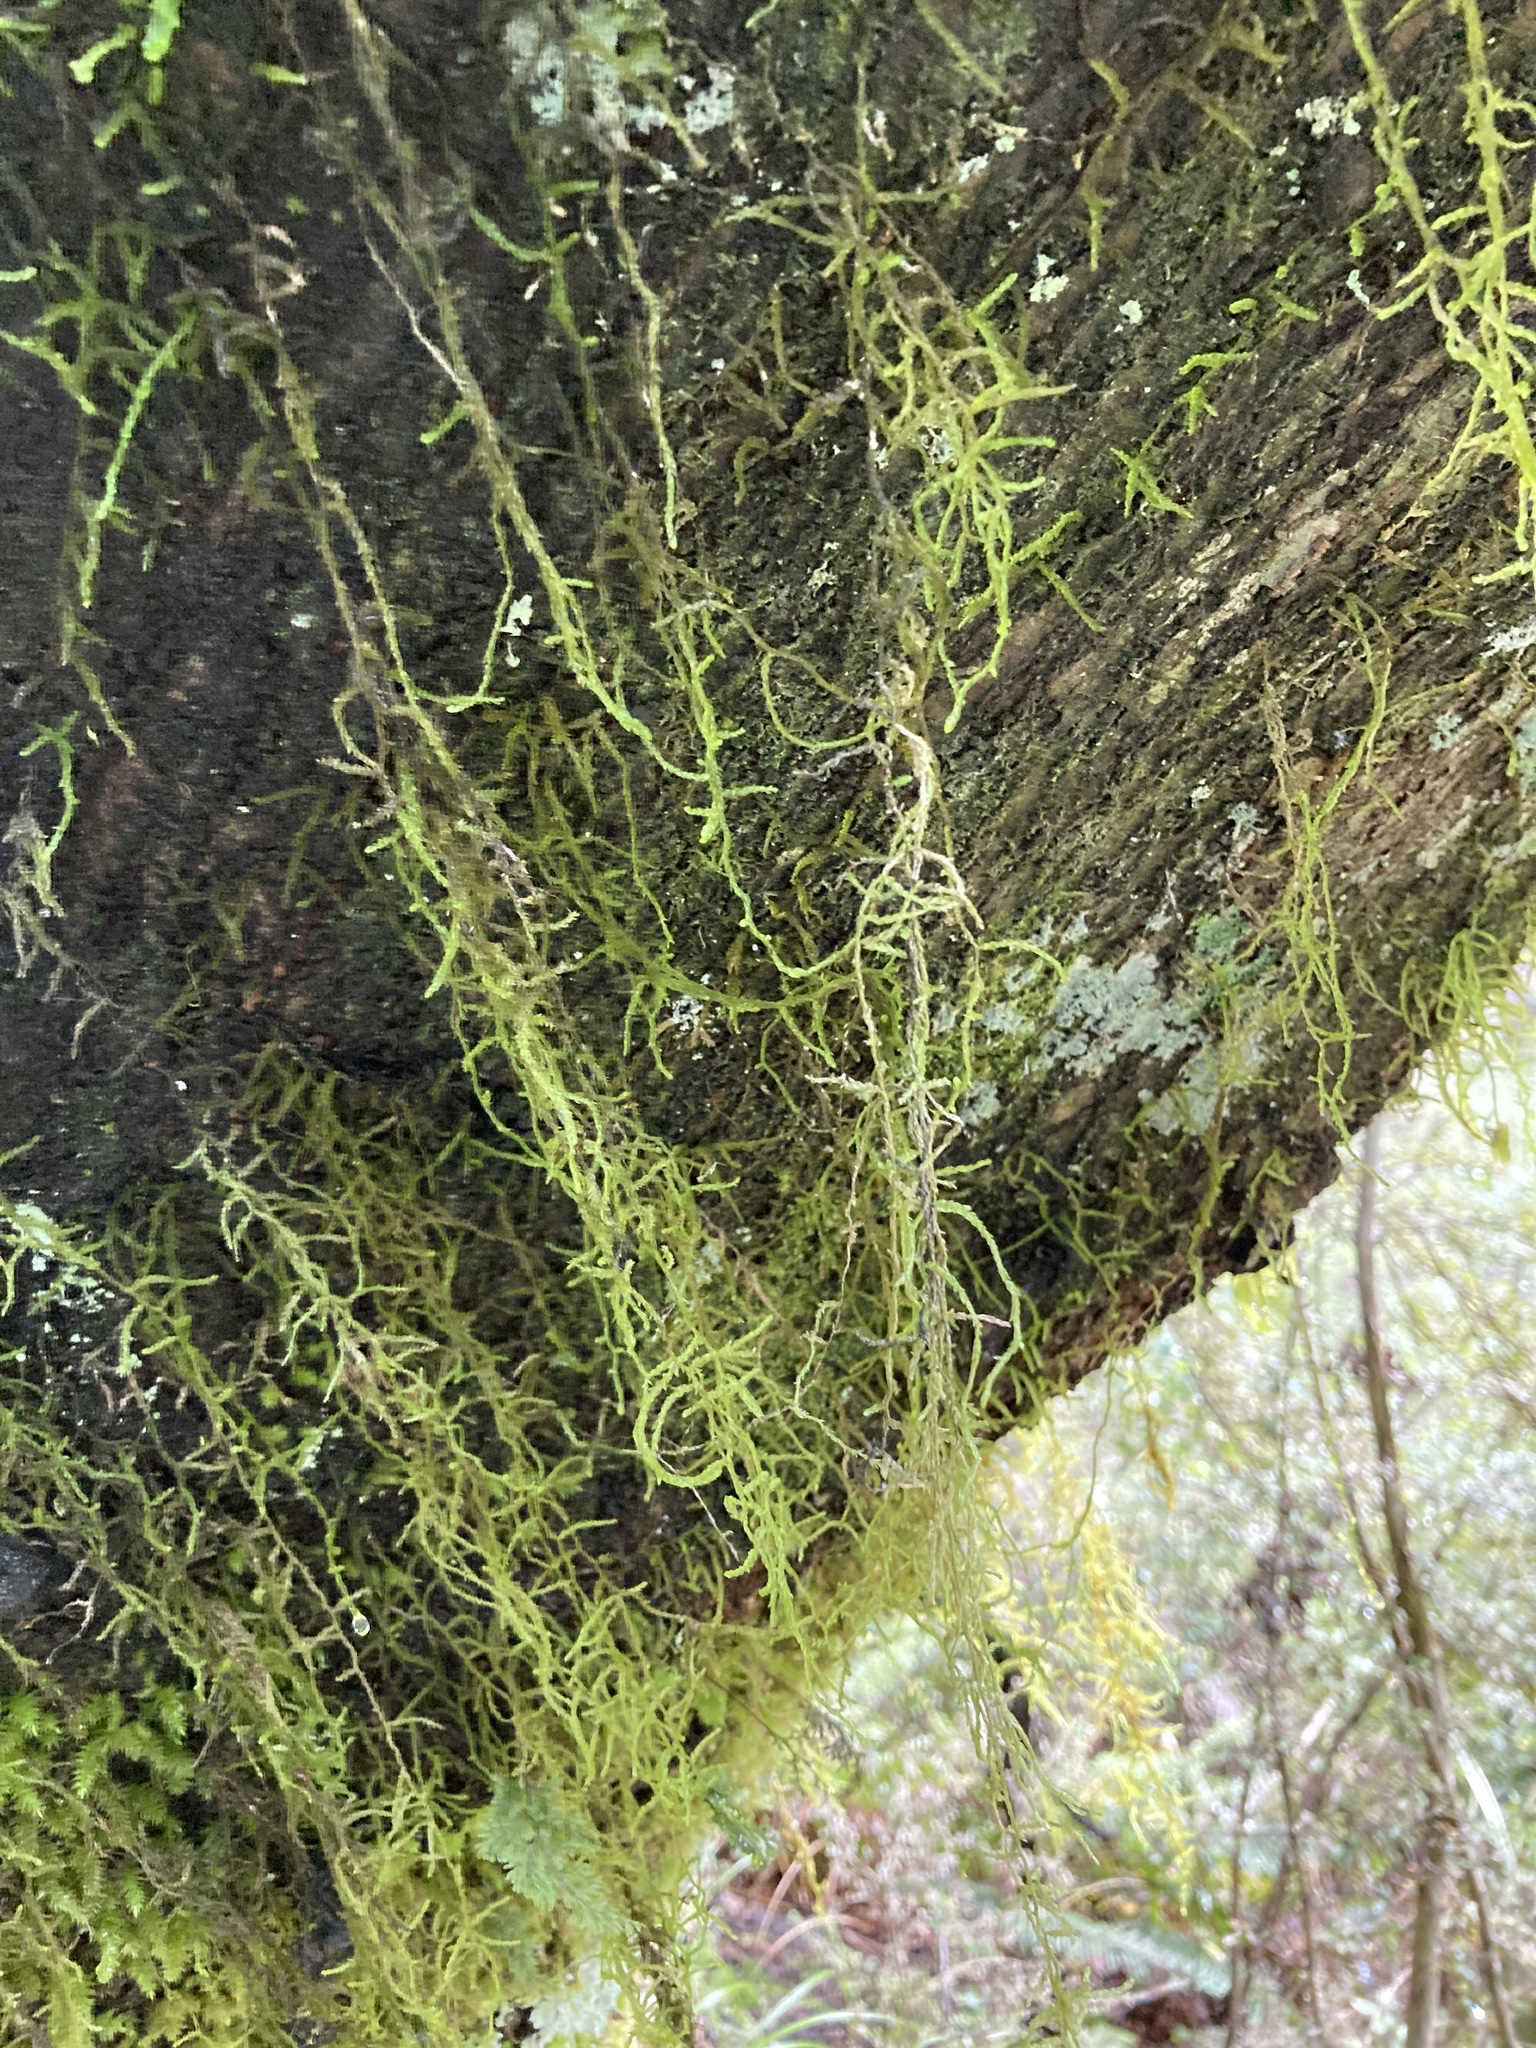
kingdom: Plantae
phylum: Bryophyta
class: Bryopsida
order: Hypnales
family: Lembophyllaceae
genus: Weymouthia
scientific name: Weymouthia mollis
